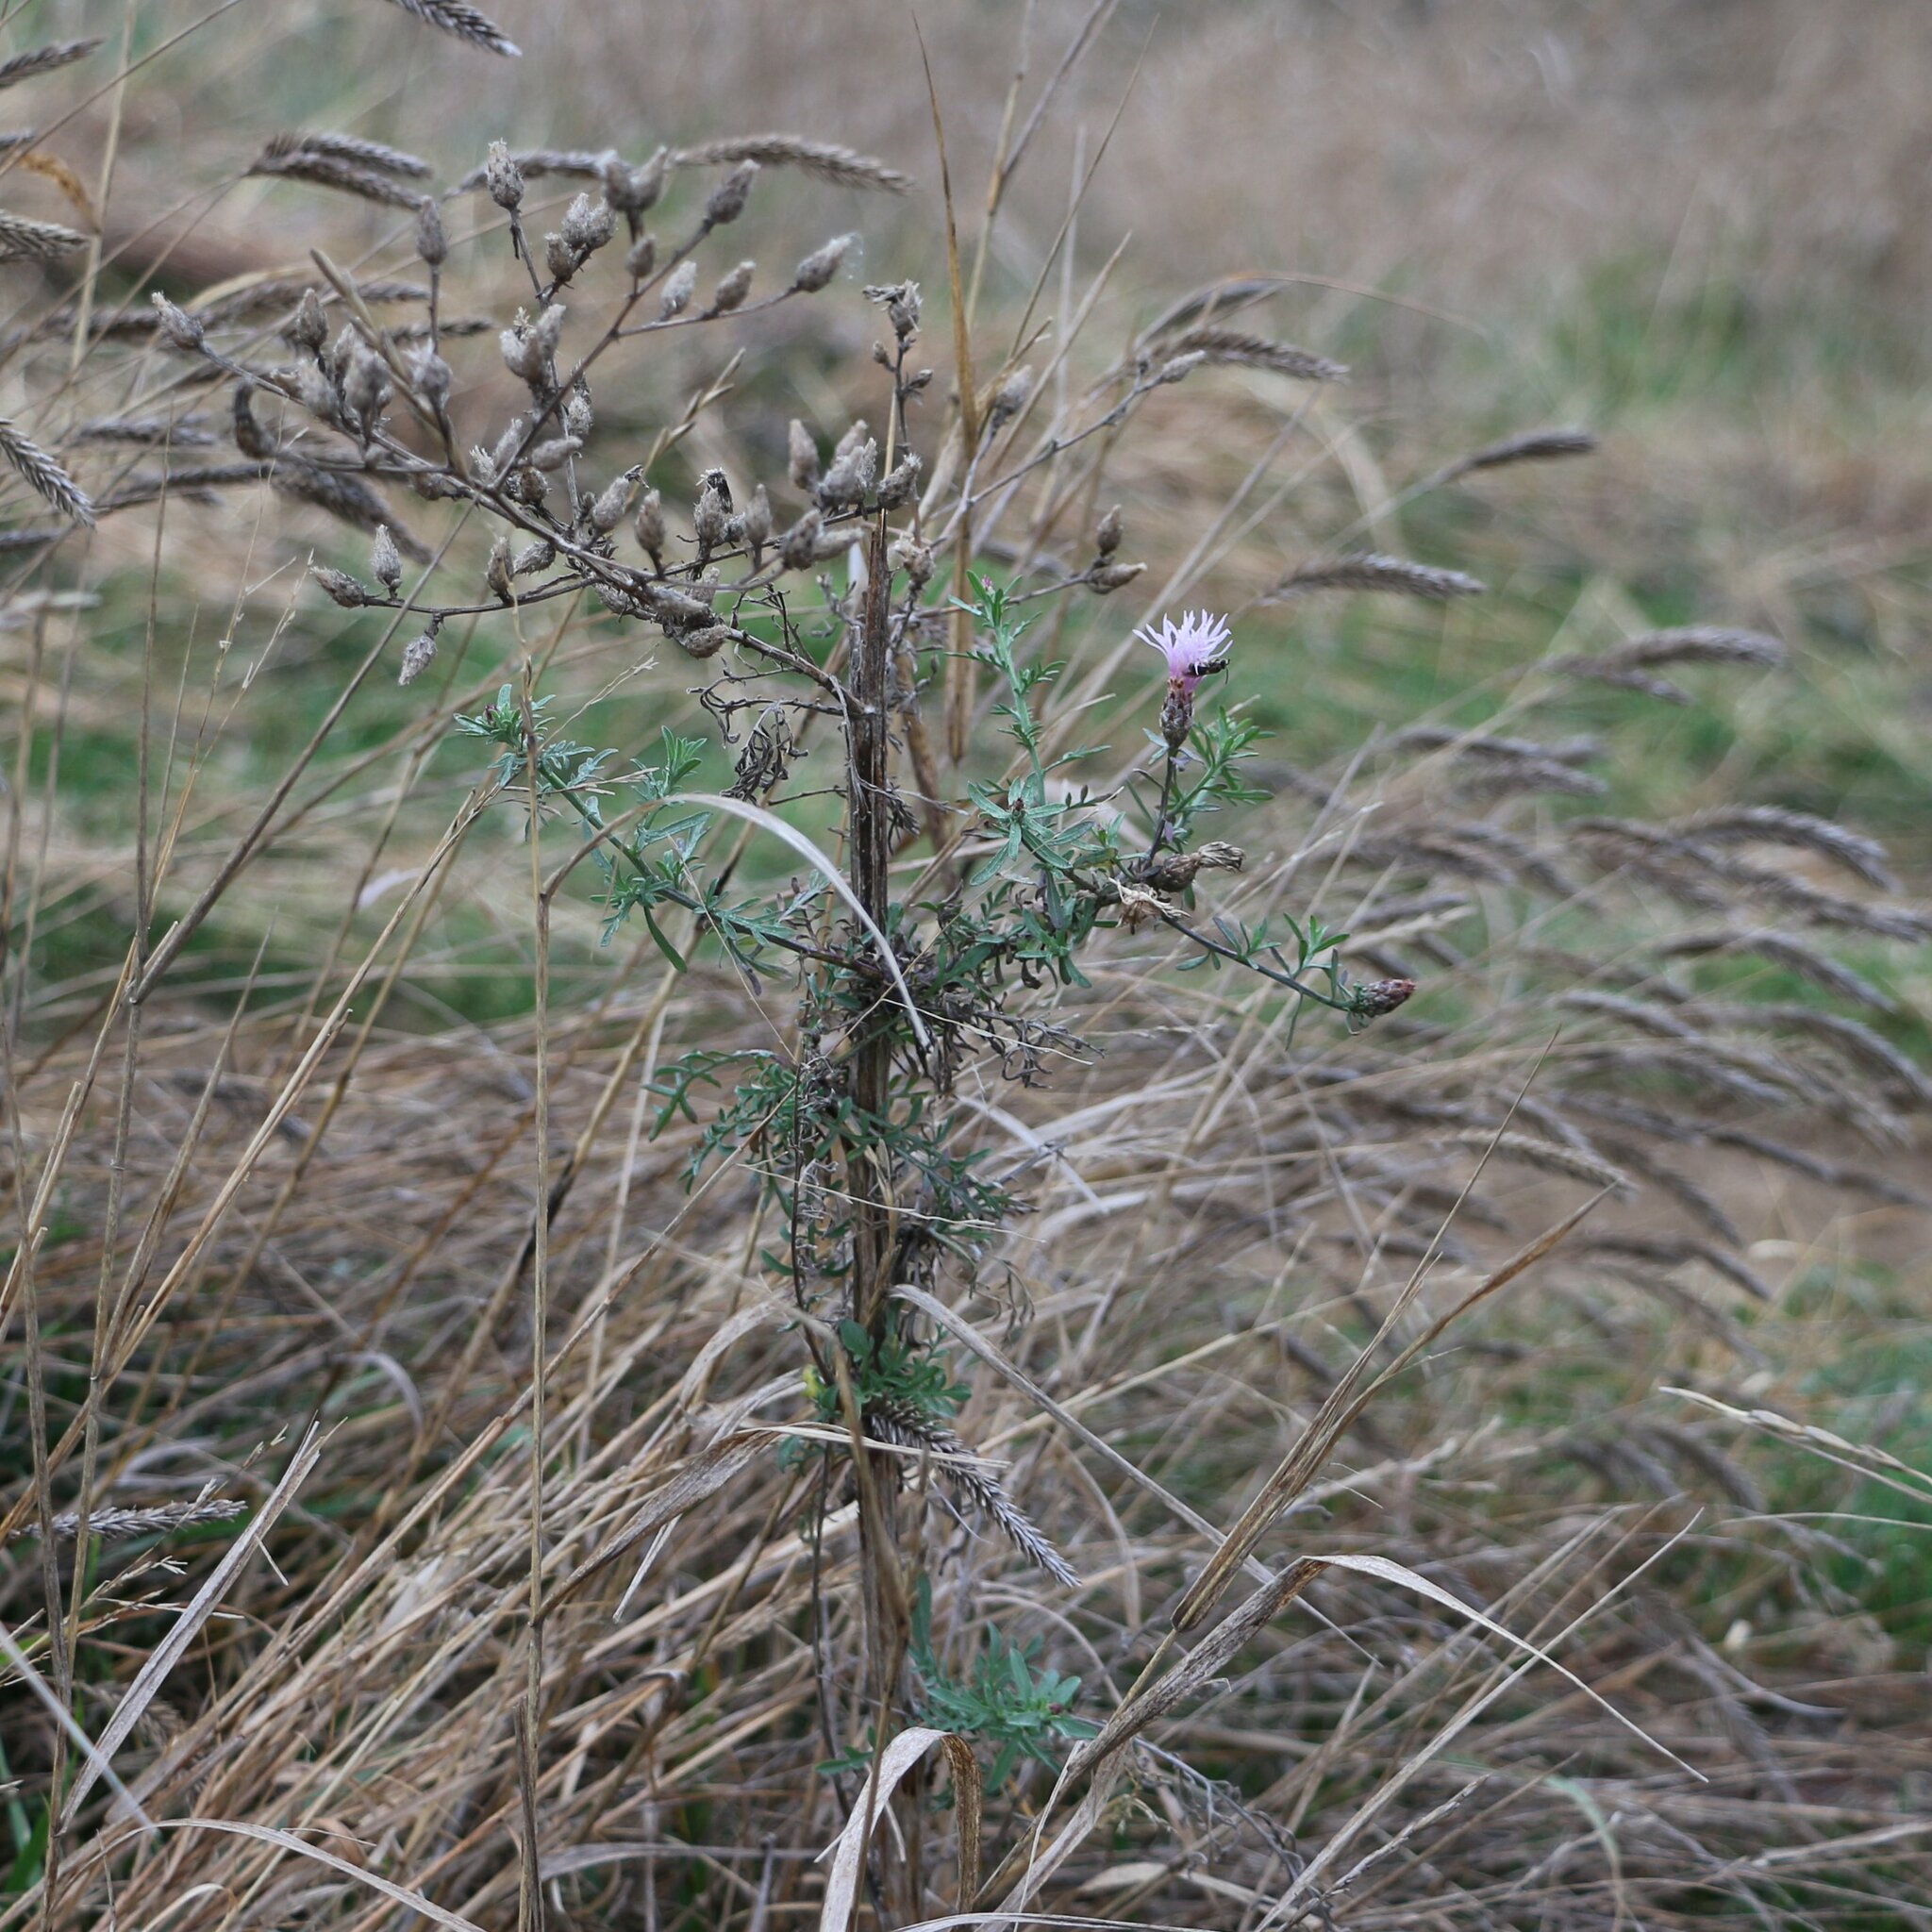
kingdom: Plantae
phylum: Tracheophyta
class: Magnoliopsida
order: Asterales
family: Asteraceae
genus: Centaurea
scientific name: Centaurea diffusa
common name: Diffuse knapweed
